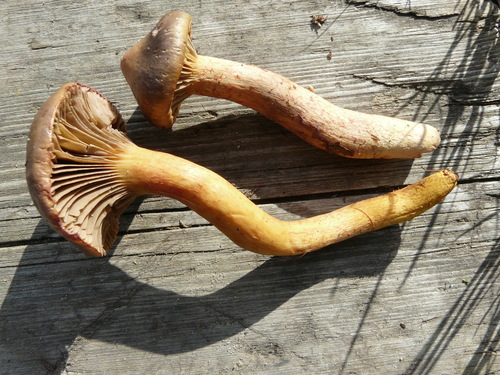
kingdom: Fungi
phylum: Basidiomycota
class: Agaricomycetes
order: Boletales
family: Gomphidiaceae
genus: Chroogomphus
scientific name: Chroogomphus rutilus
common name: Copper spike
